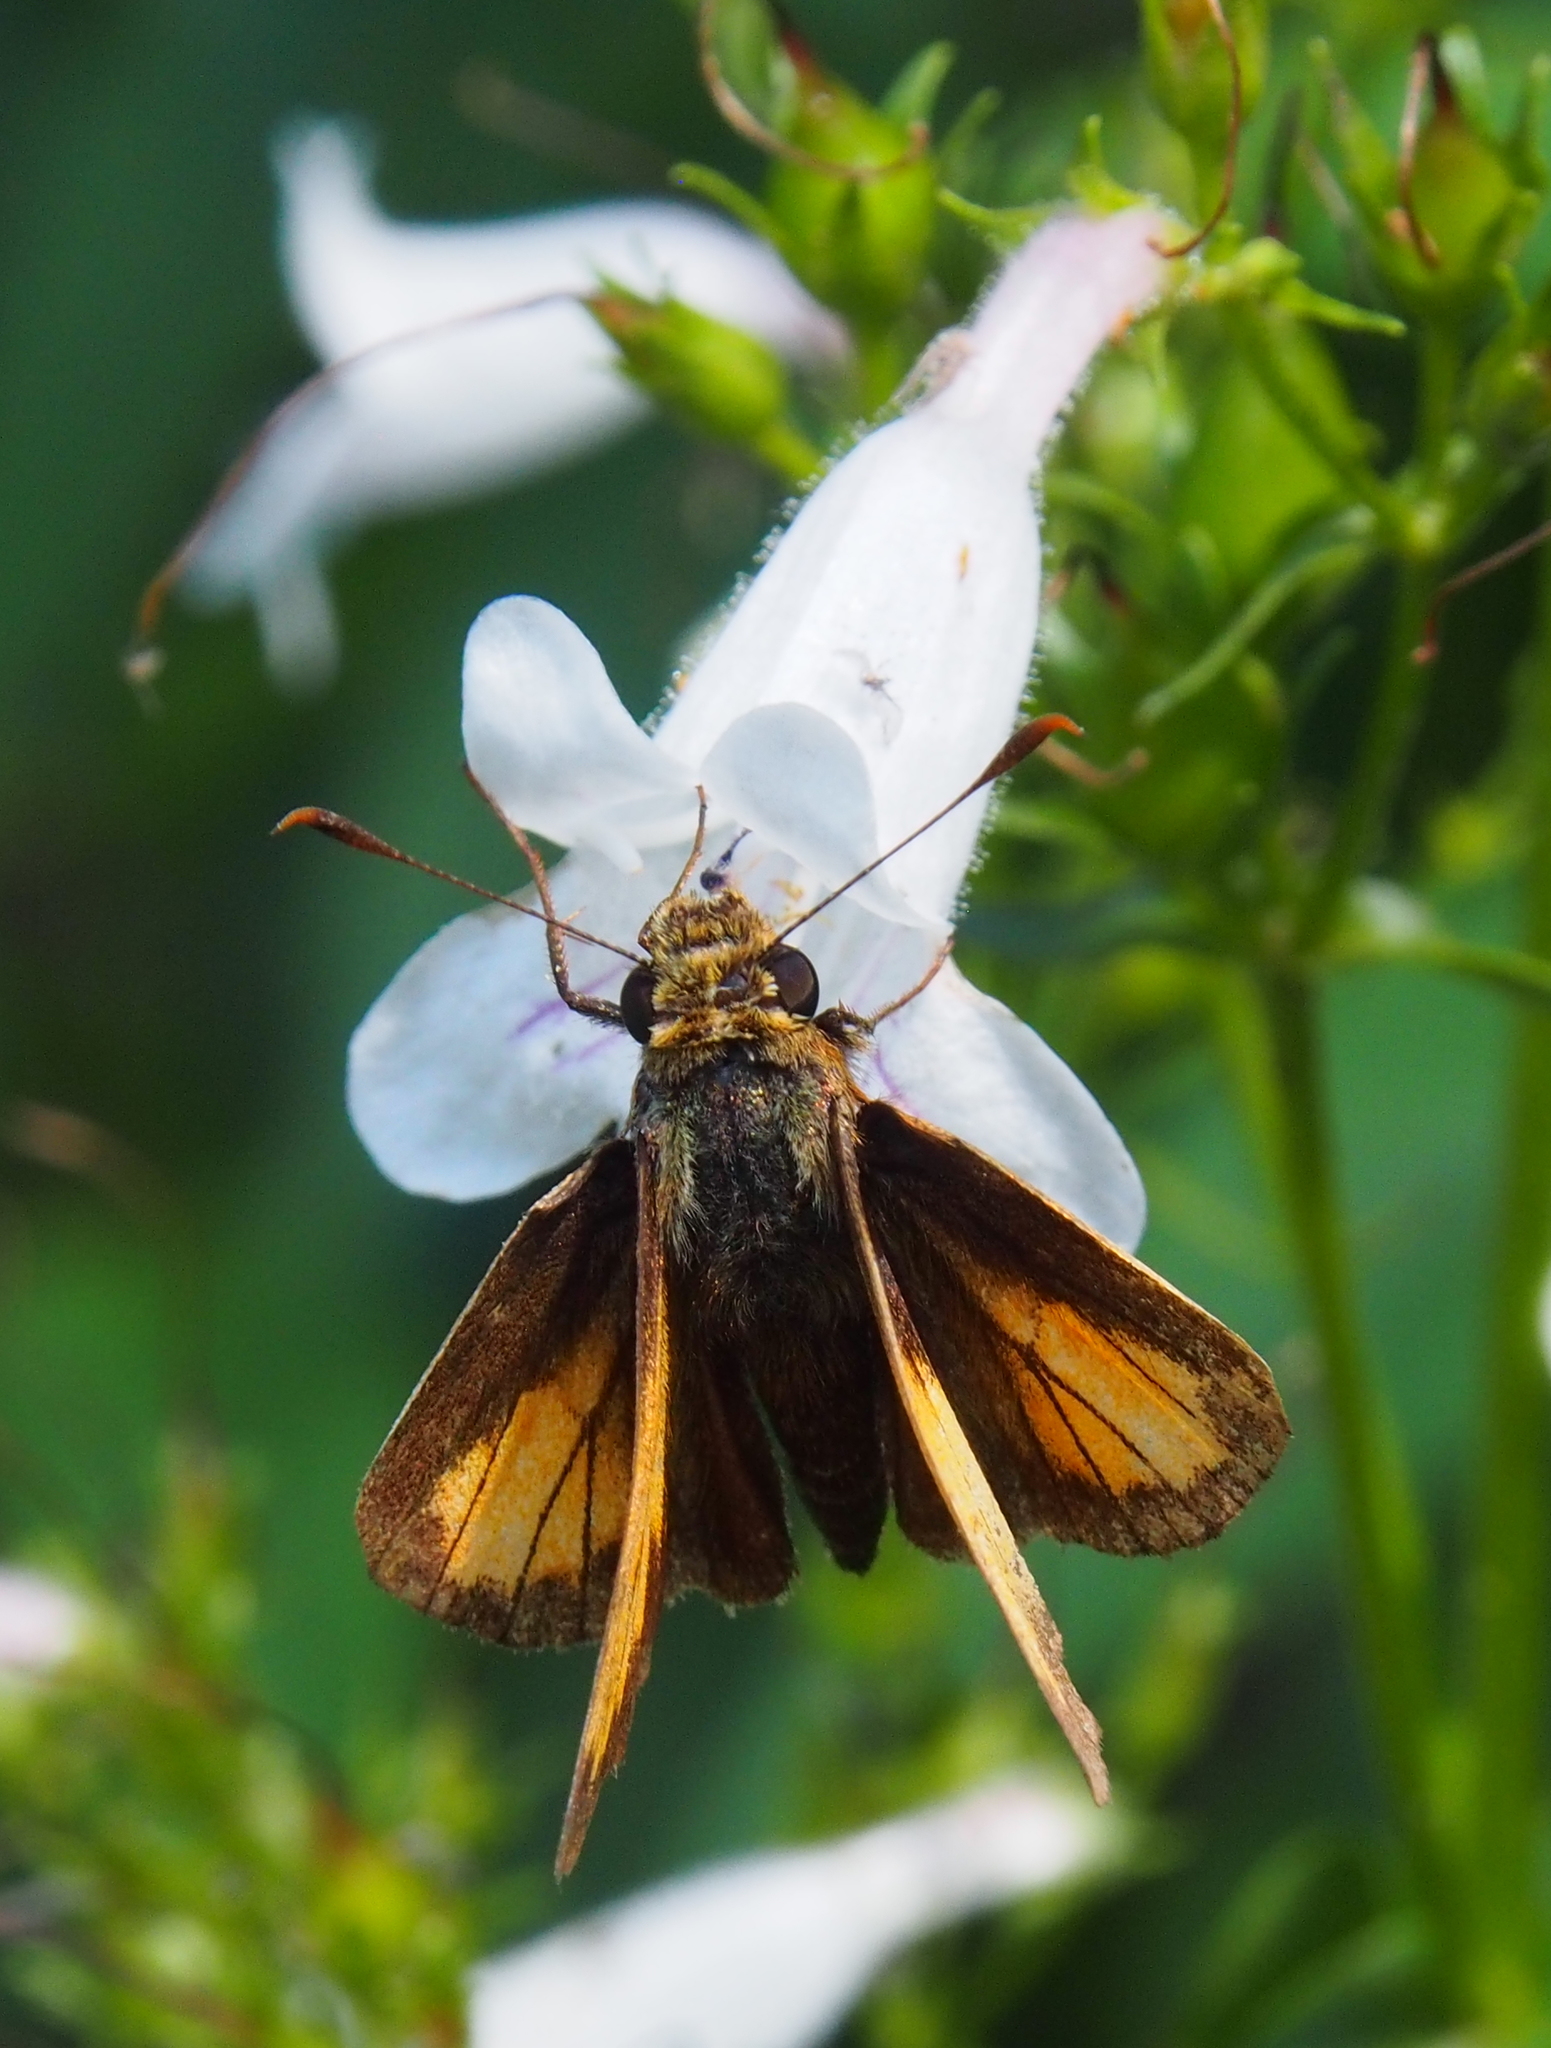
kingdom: Animalia
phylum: Arthropoda
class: Insecta
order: Lepidoptera
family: Hesperiidae
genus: Lon
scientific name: Lon hobomok
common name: Hobomok skipper
